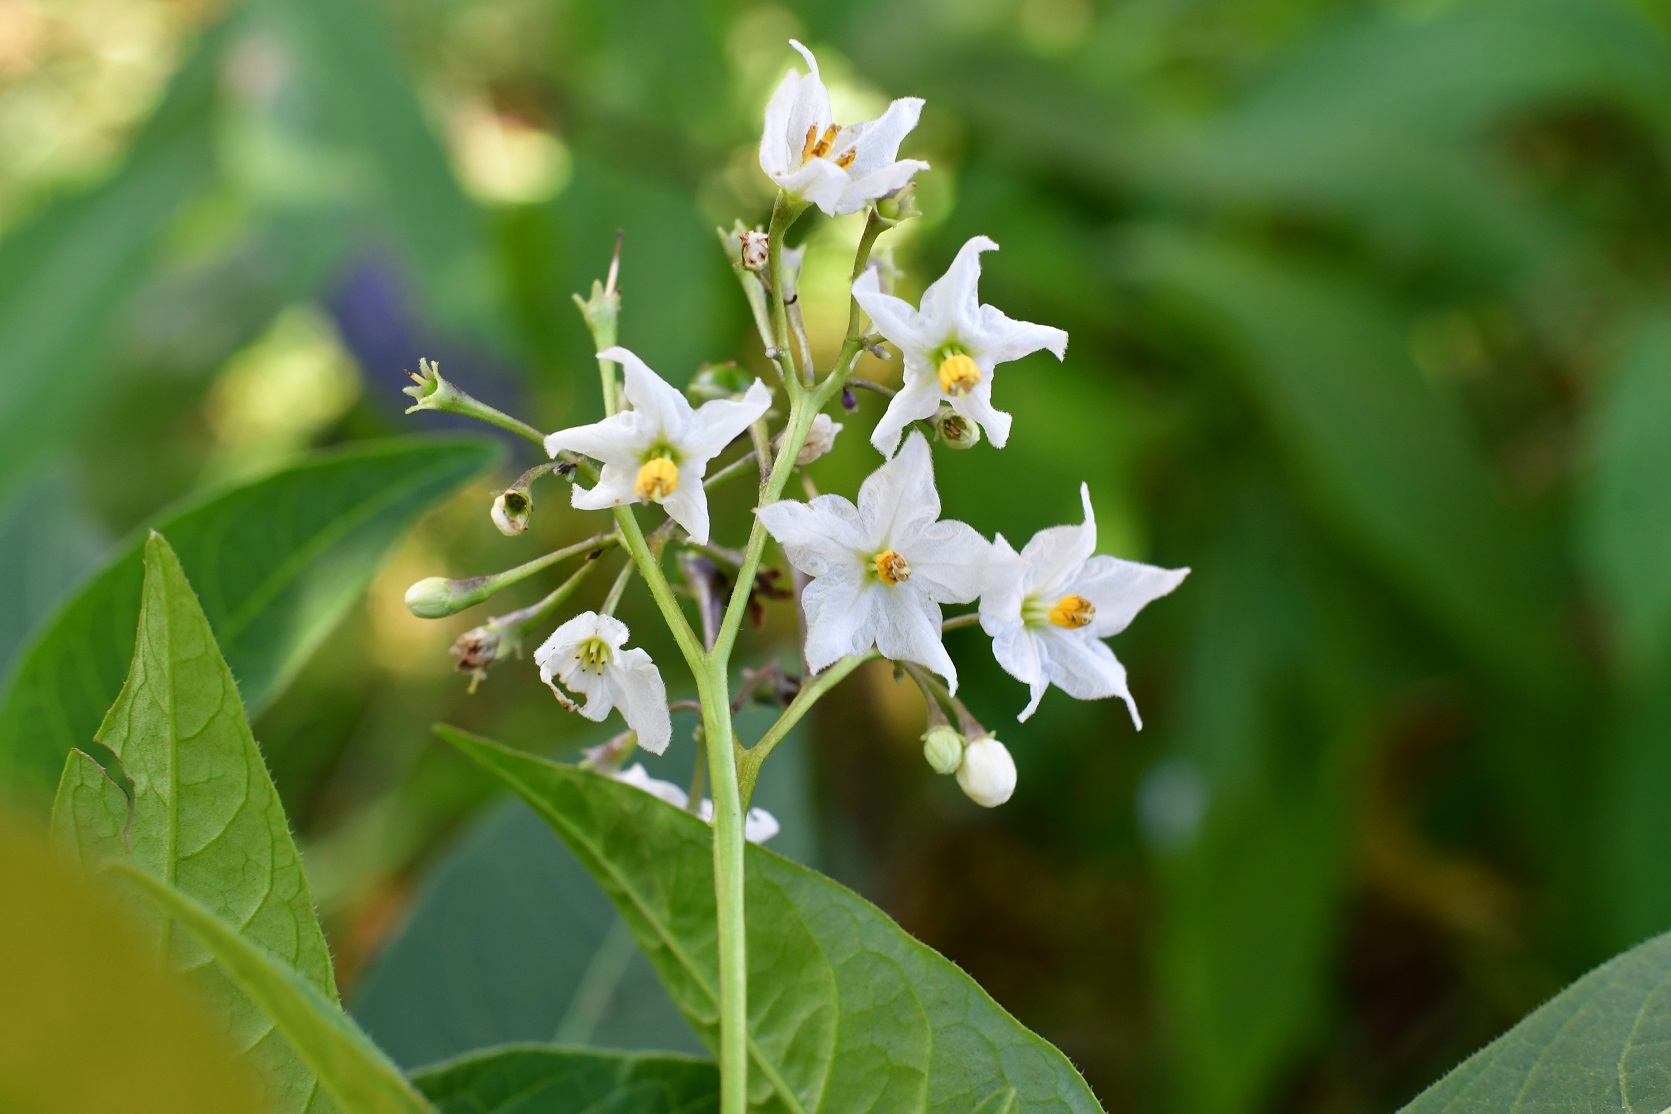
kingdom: Plantae
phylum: Tracheophyta
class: Magnoliopsida
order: Solanales
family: Solanaceae
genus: Solanum
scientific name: Solanum pubigerum
